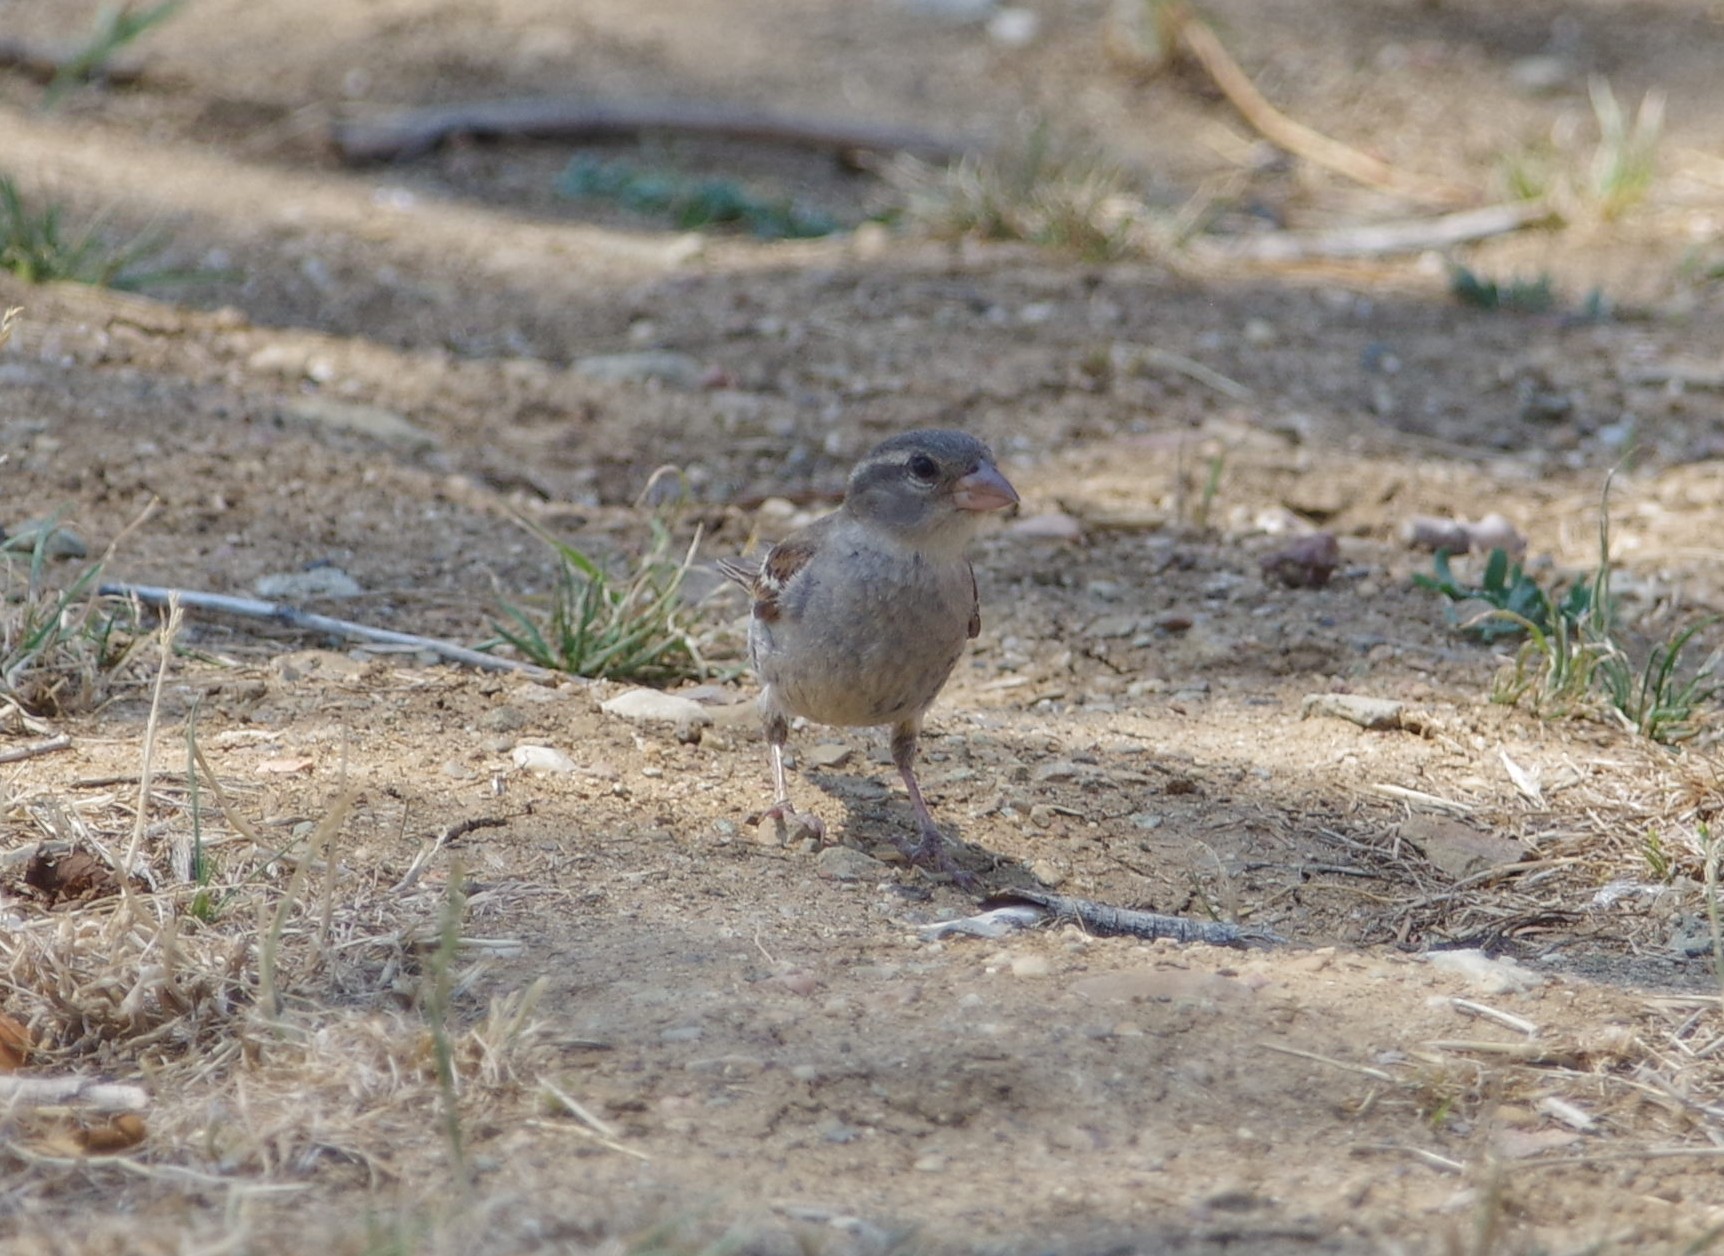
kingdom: Animalia
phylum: Chordata
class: Aves
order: Passeriformes
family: Passeridae
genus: Passer
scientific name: Passer domesticus
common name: House sparrow
